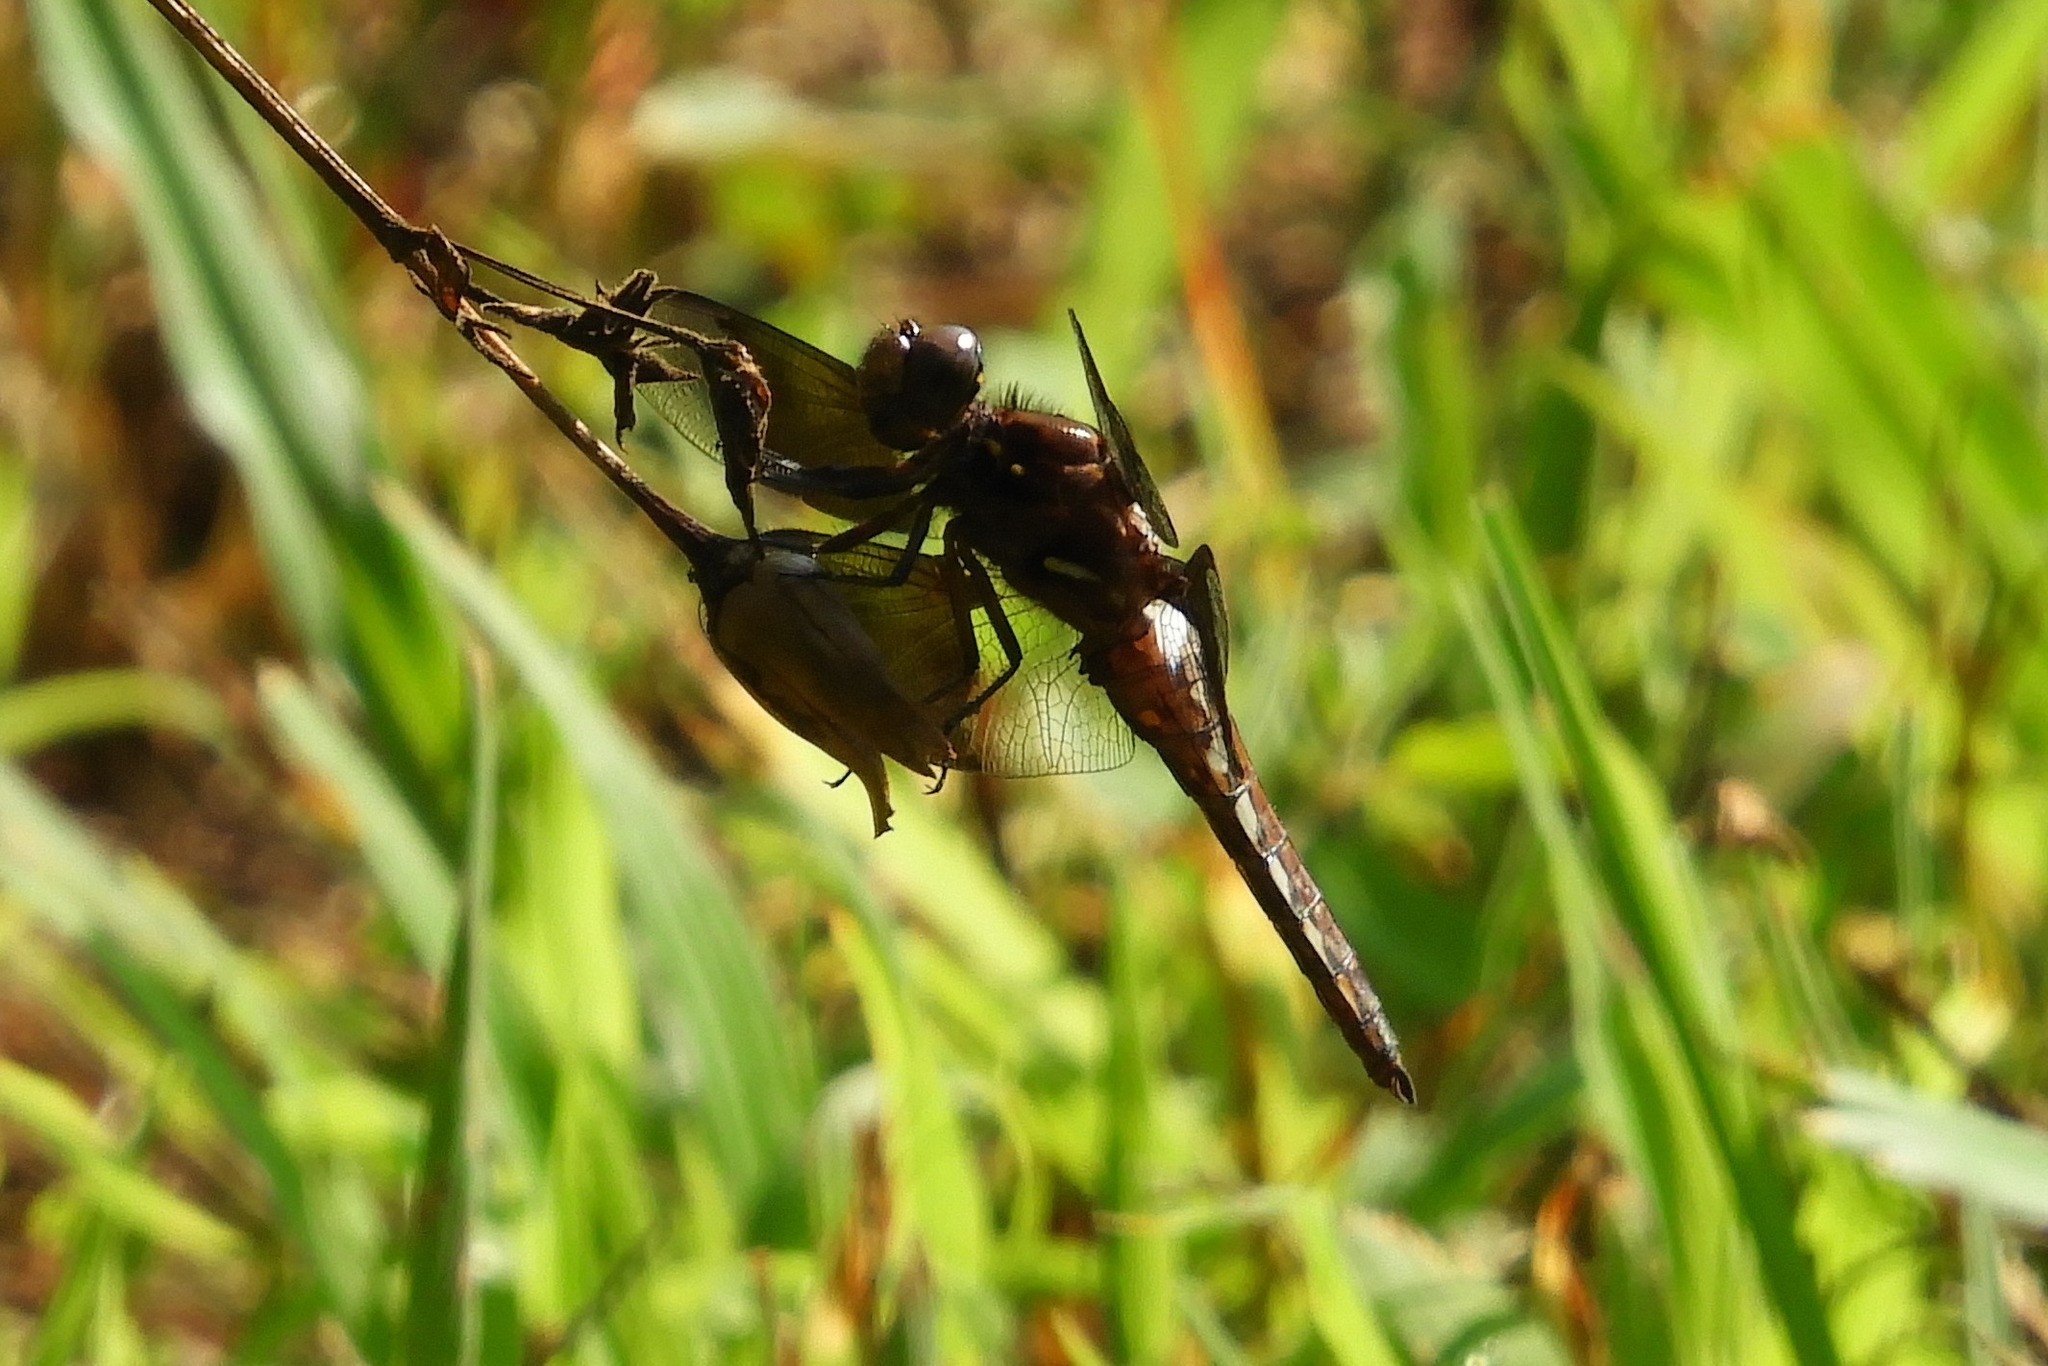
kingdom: Animalia
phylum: Arthropoda
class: Insecta
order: Odonata
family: Libellulidae
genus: Plathemis
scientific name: Plathemis lydia
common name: Common whitetail
